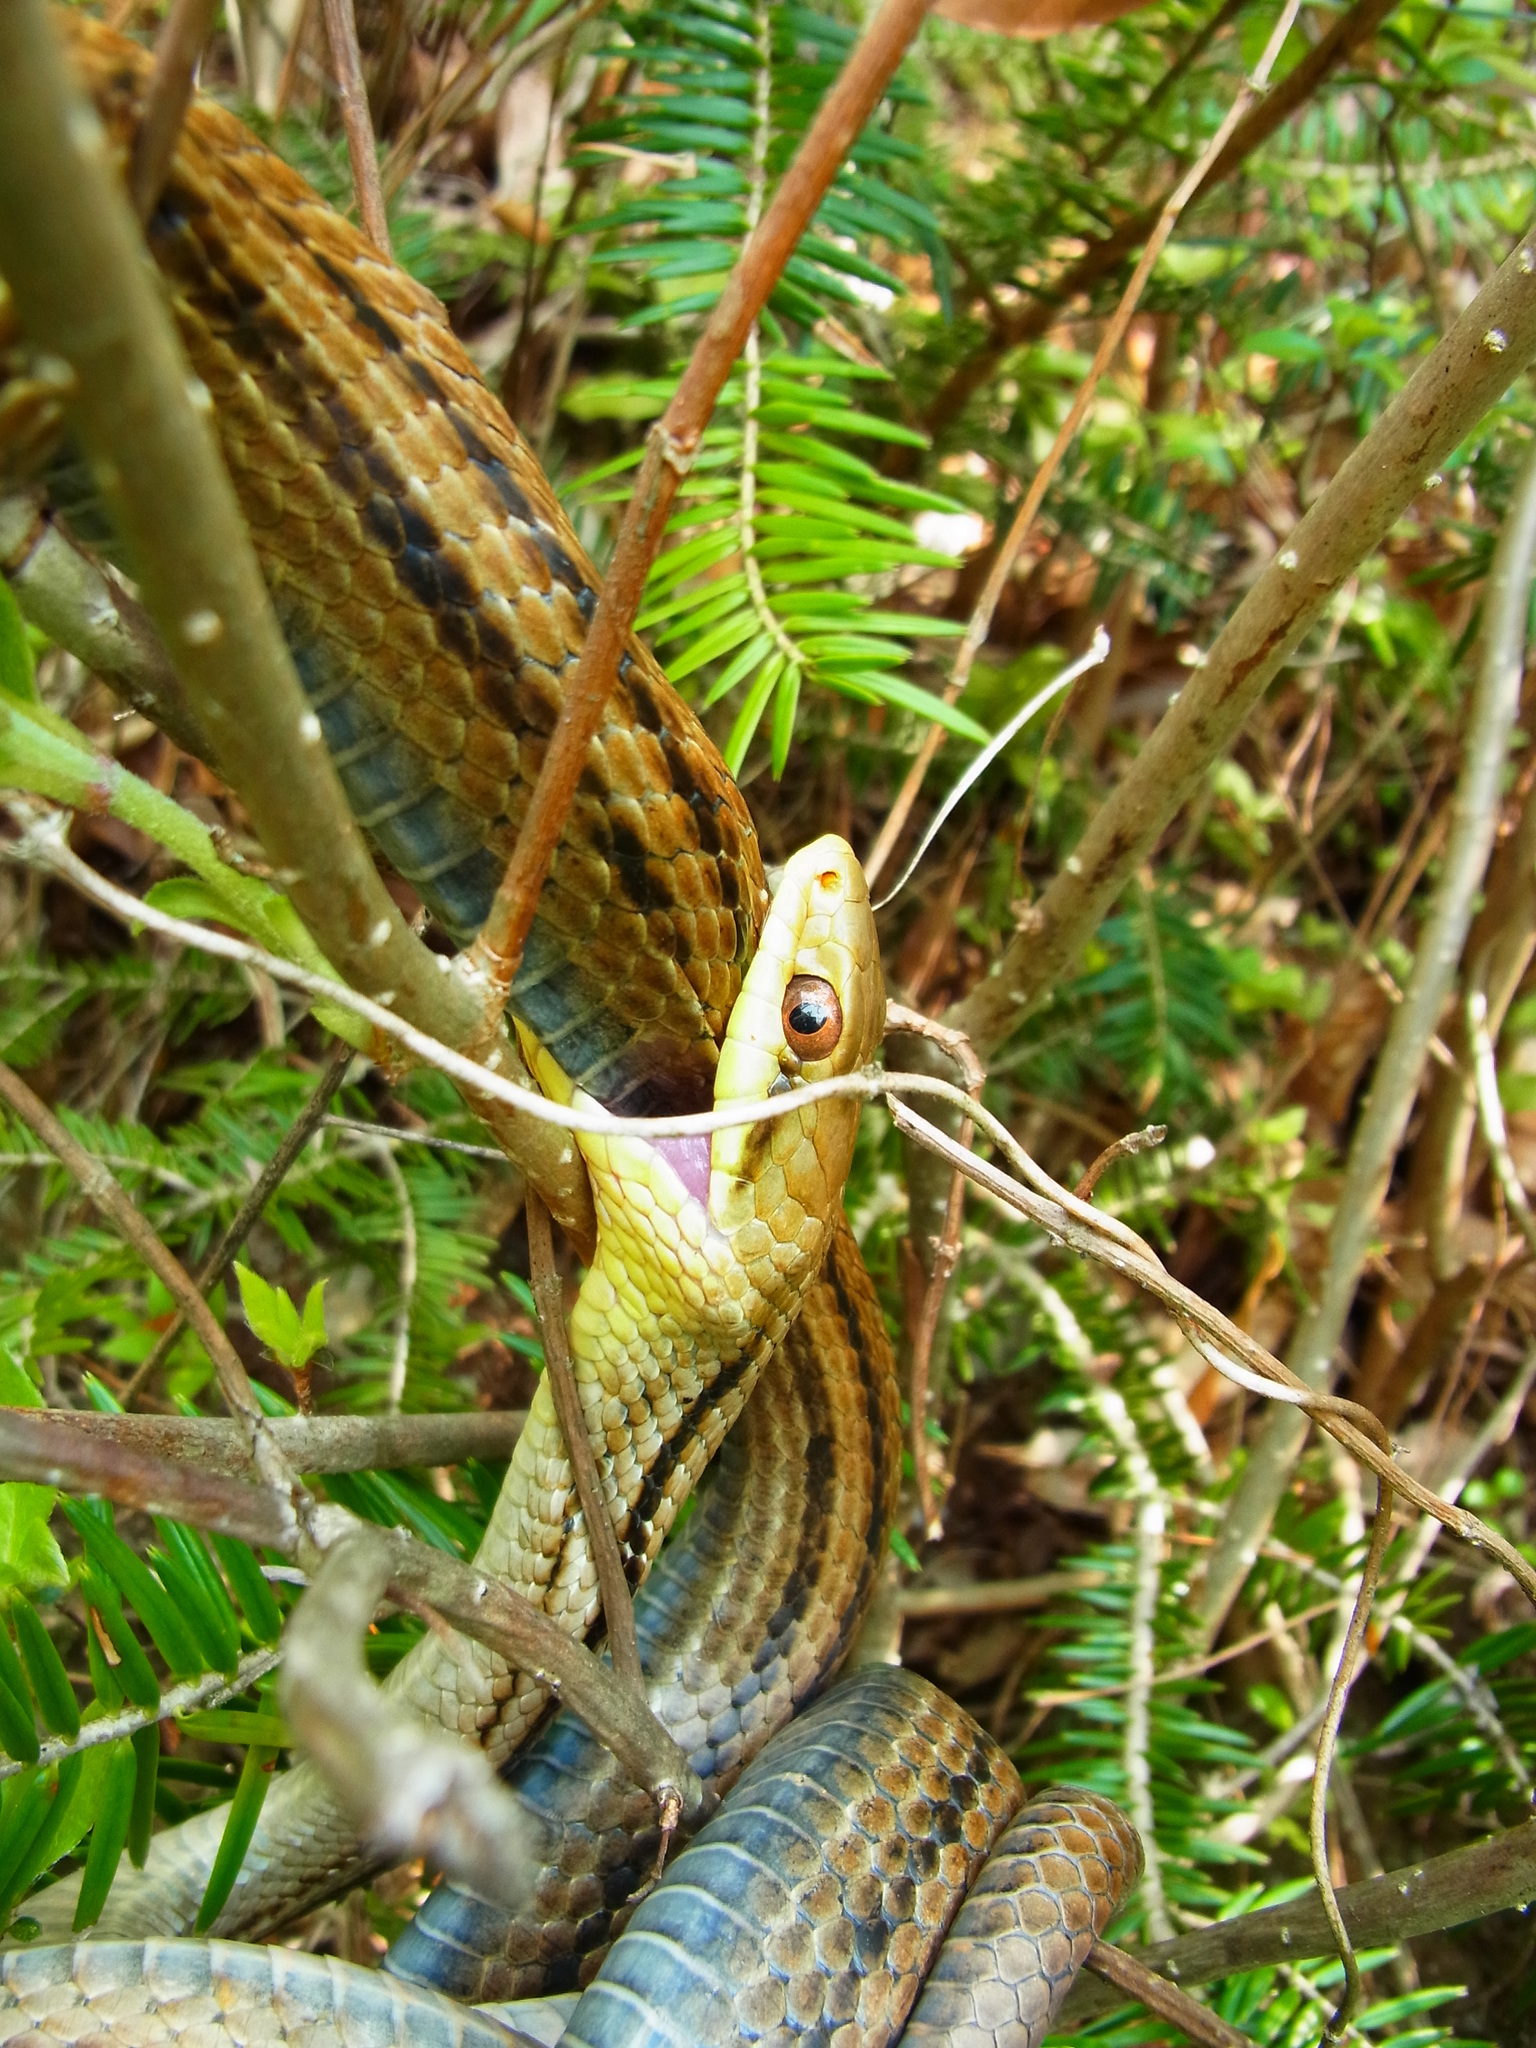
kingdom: Animalia
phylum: Chordata
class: Squamata
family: Colubridae
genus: Elaphe
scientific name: Elaphe quadrivirgata
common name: Japanese four-lined ratsnake
